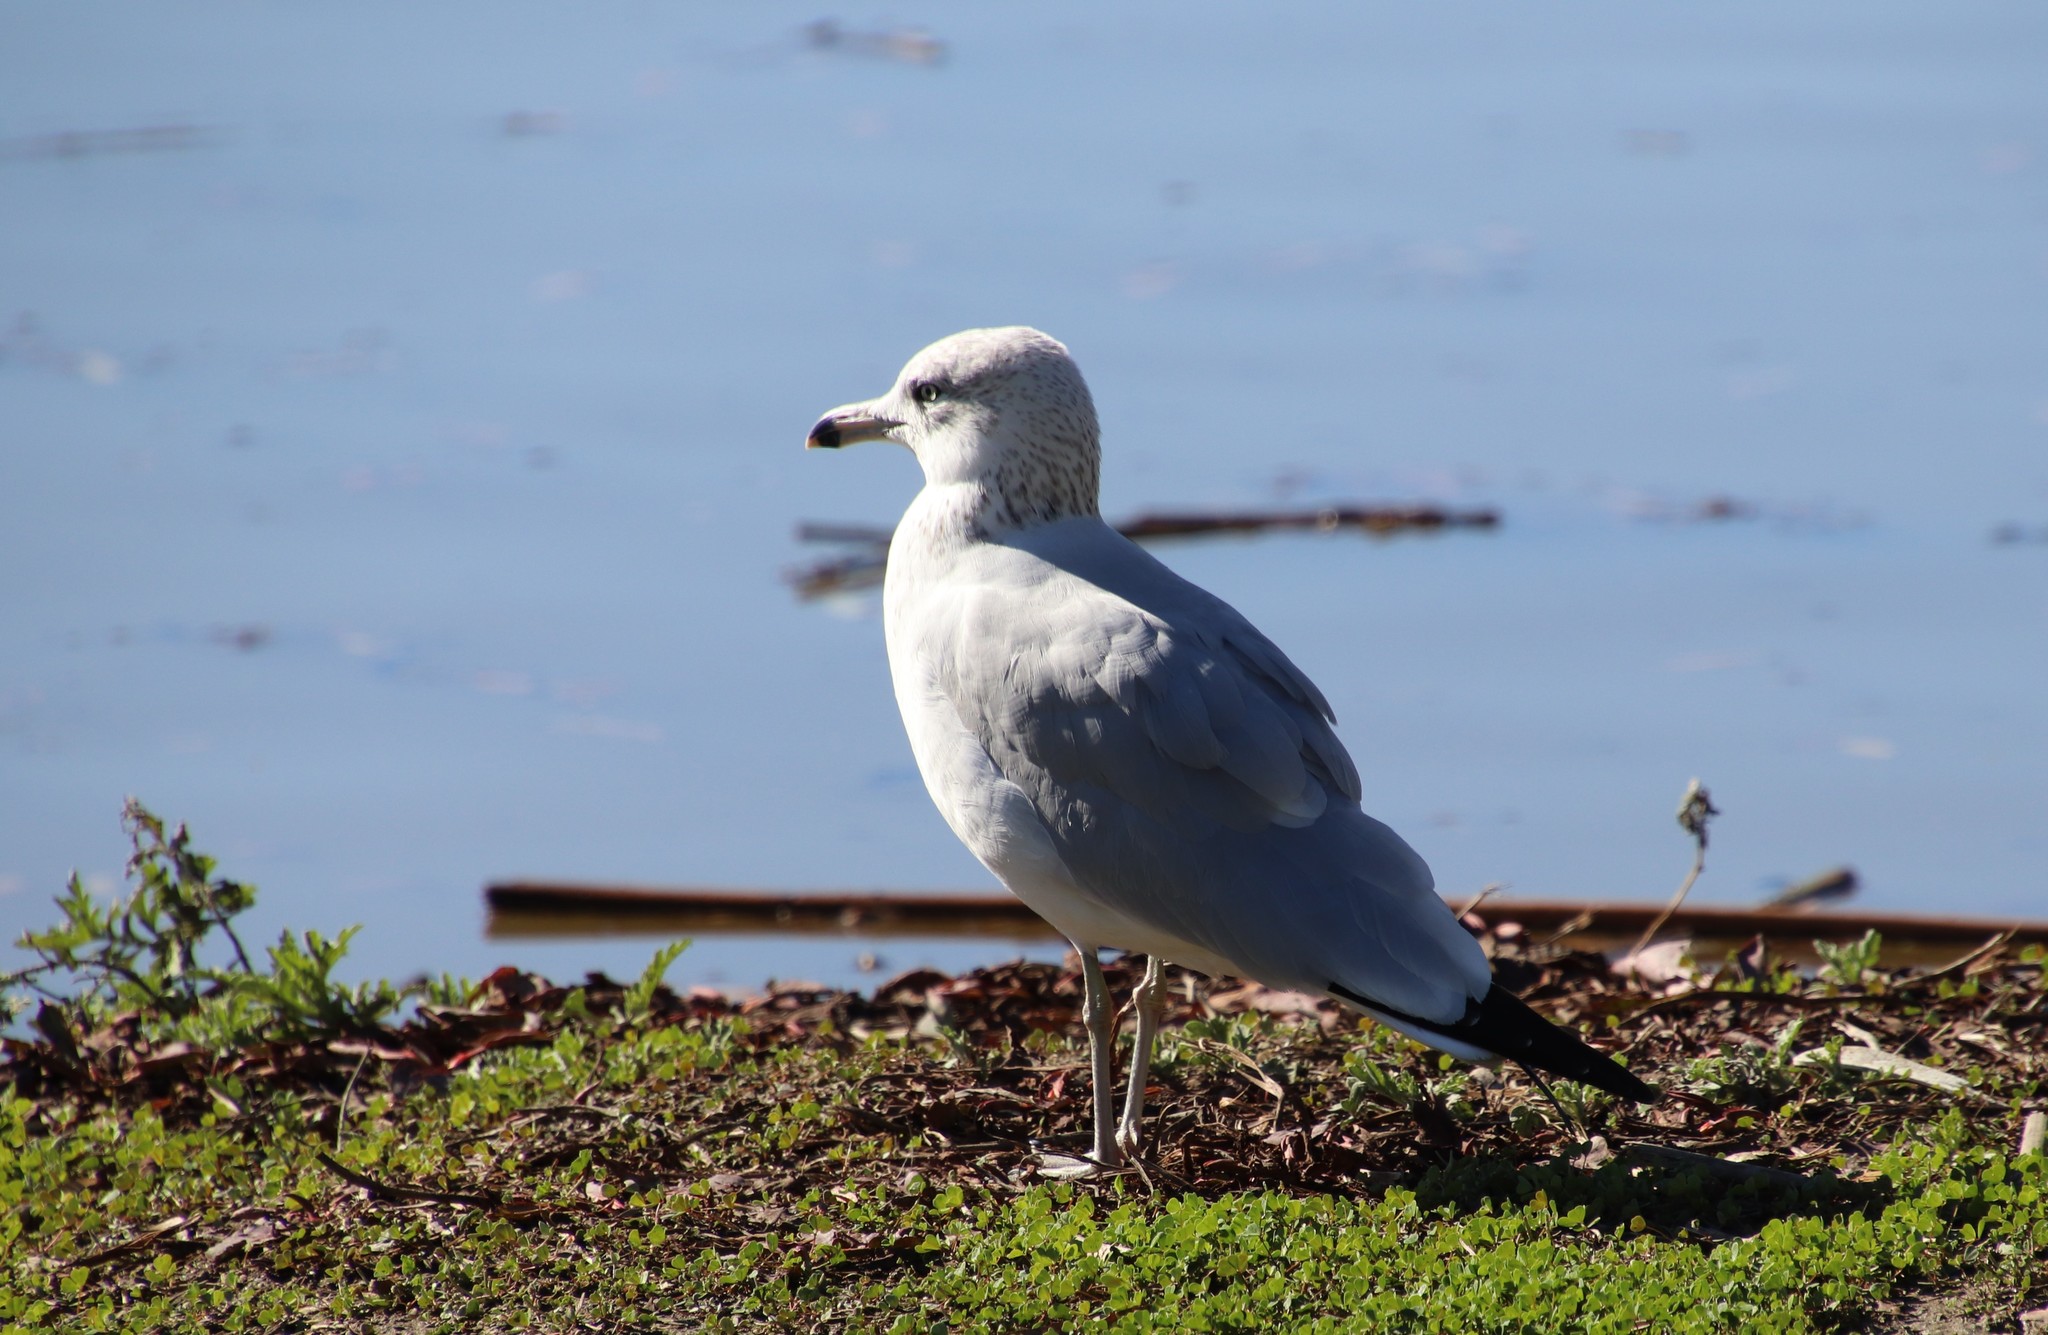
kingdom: Animalia
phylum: Chordata
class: Aves
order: Charadriiformes
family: Laridae
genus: Larus
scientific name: Larus delawarensis
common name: Ring-billed gull
